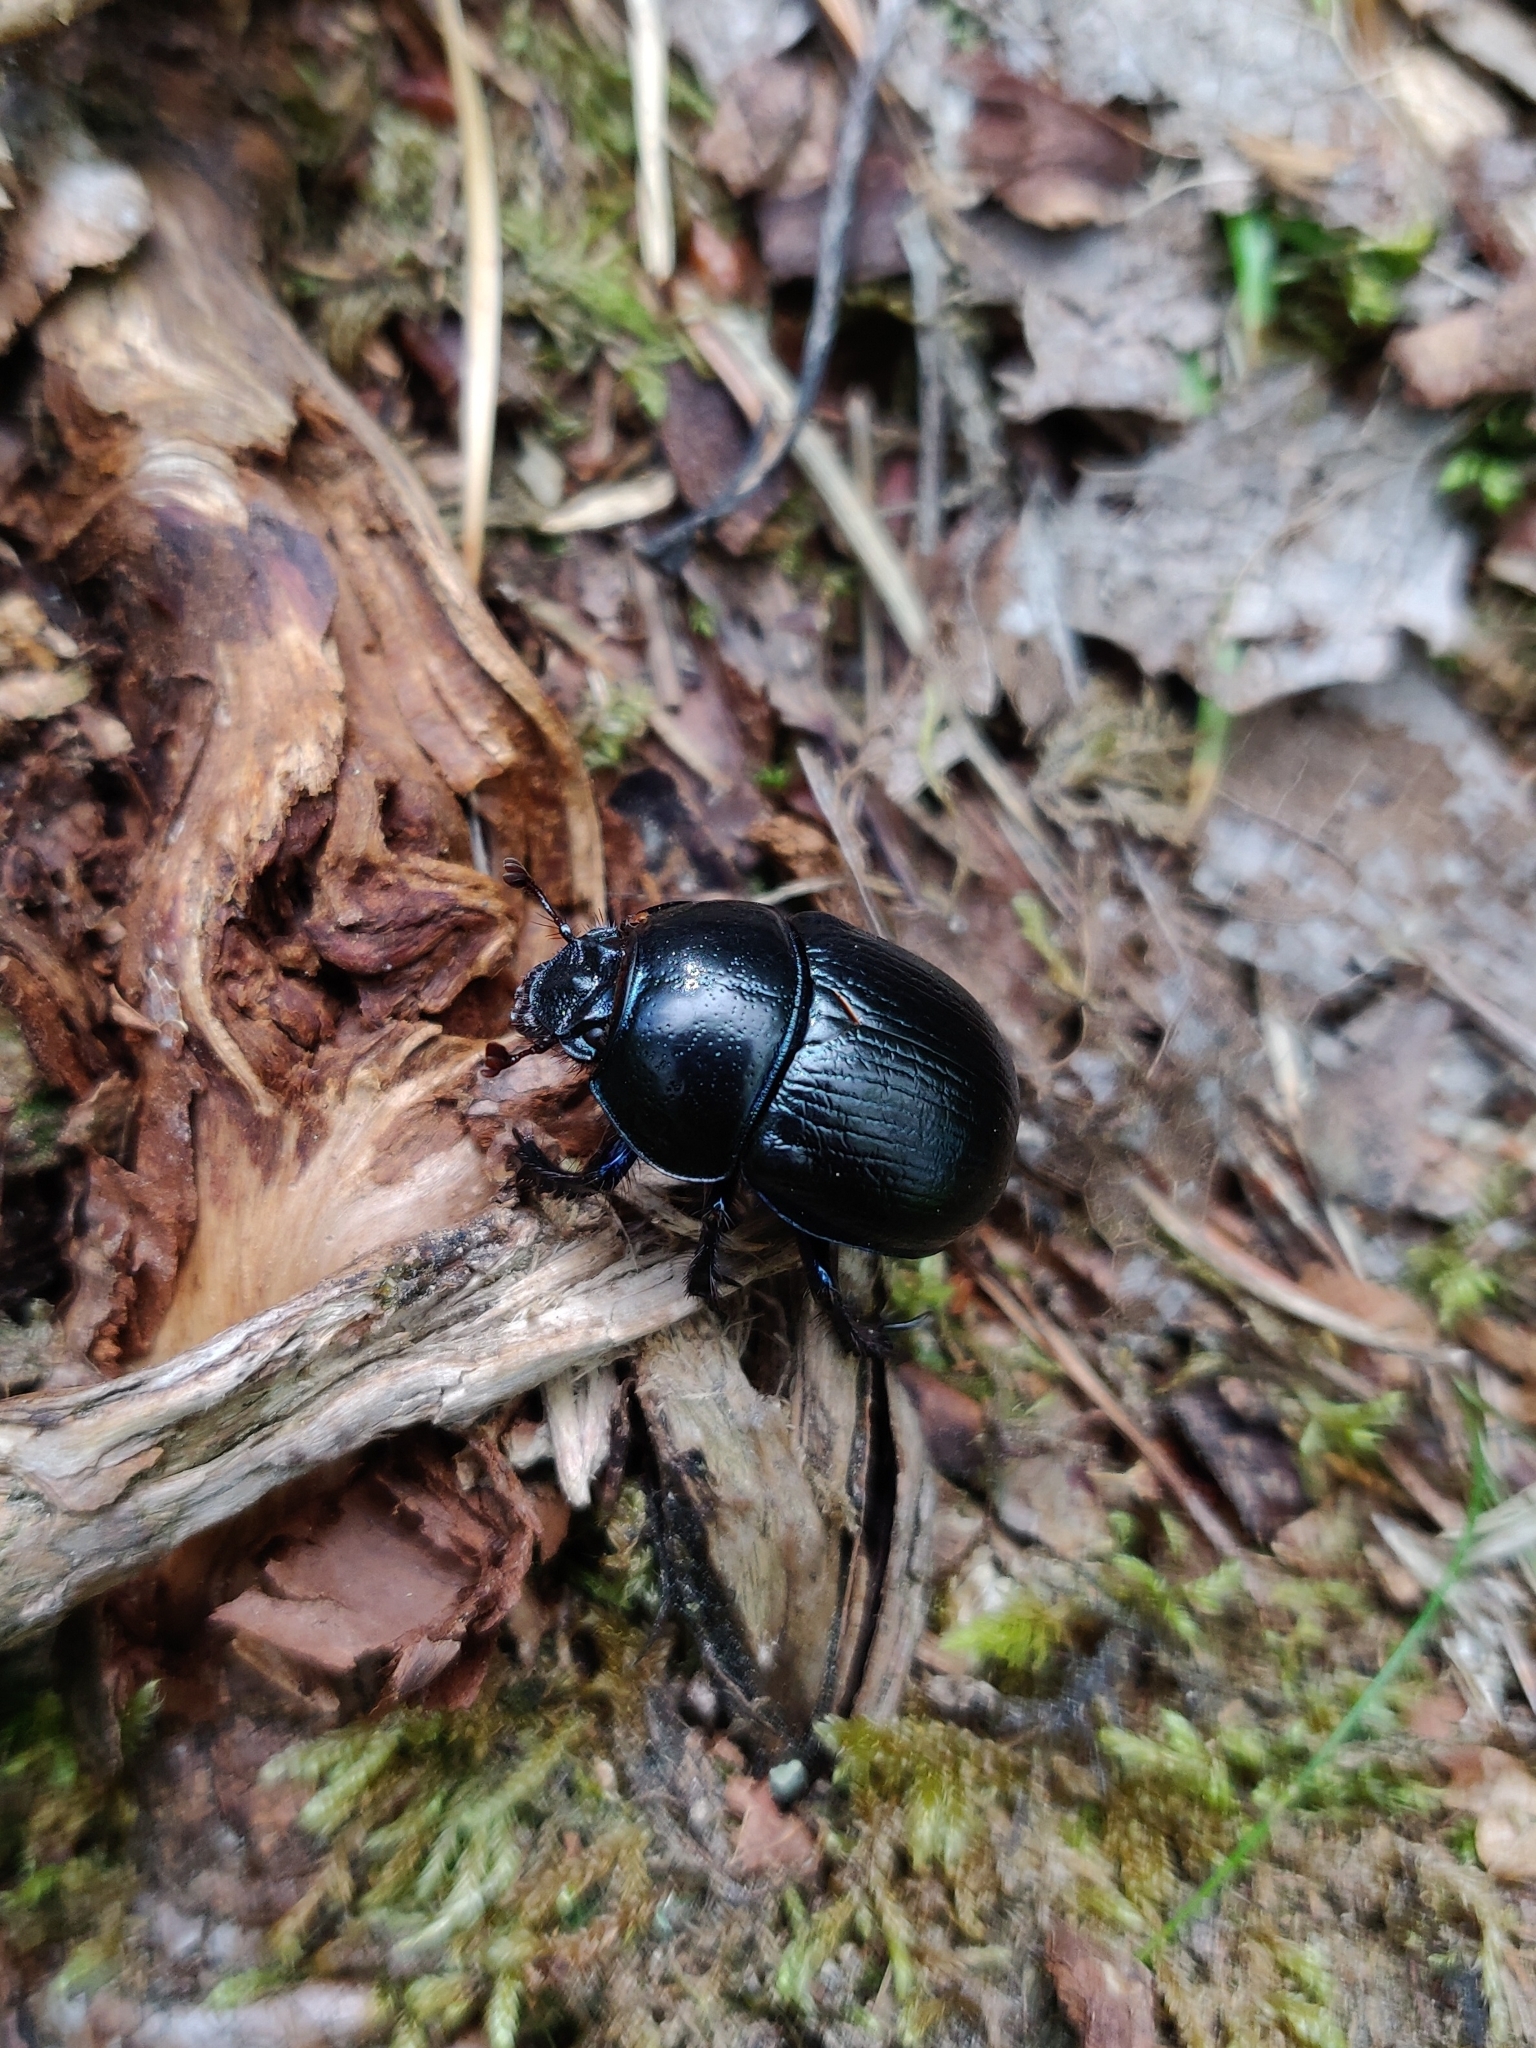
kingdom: Animalia
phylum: Arthropoda
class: Insecta
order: Coleoptera
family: Geotrupidae
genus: Anoplotrupes
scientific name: Anoplotrupes stercorosus
